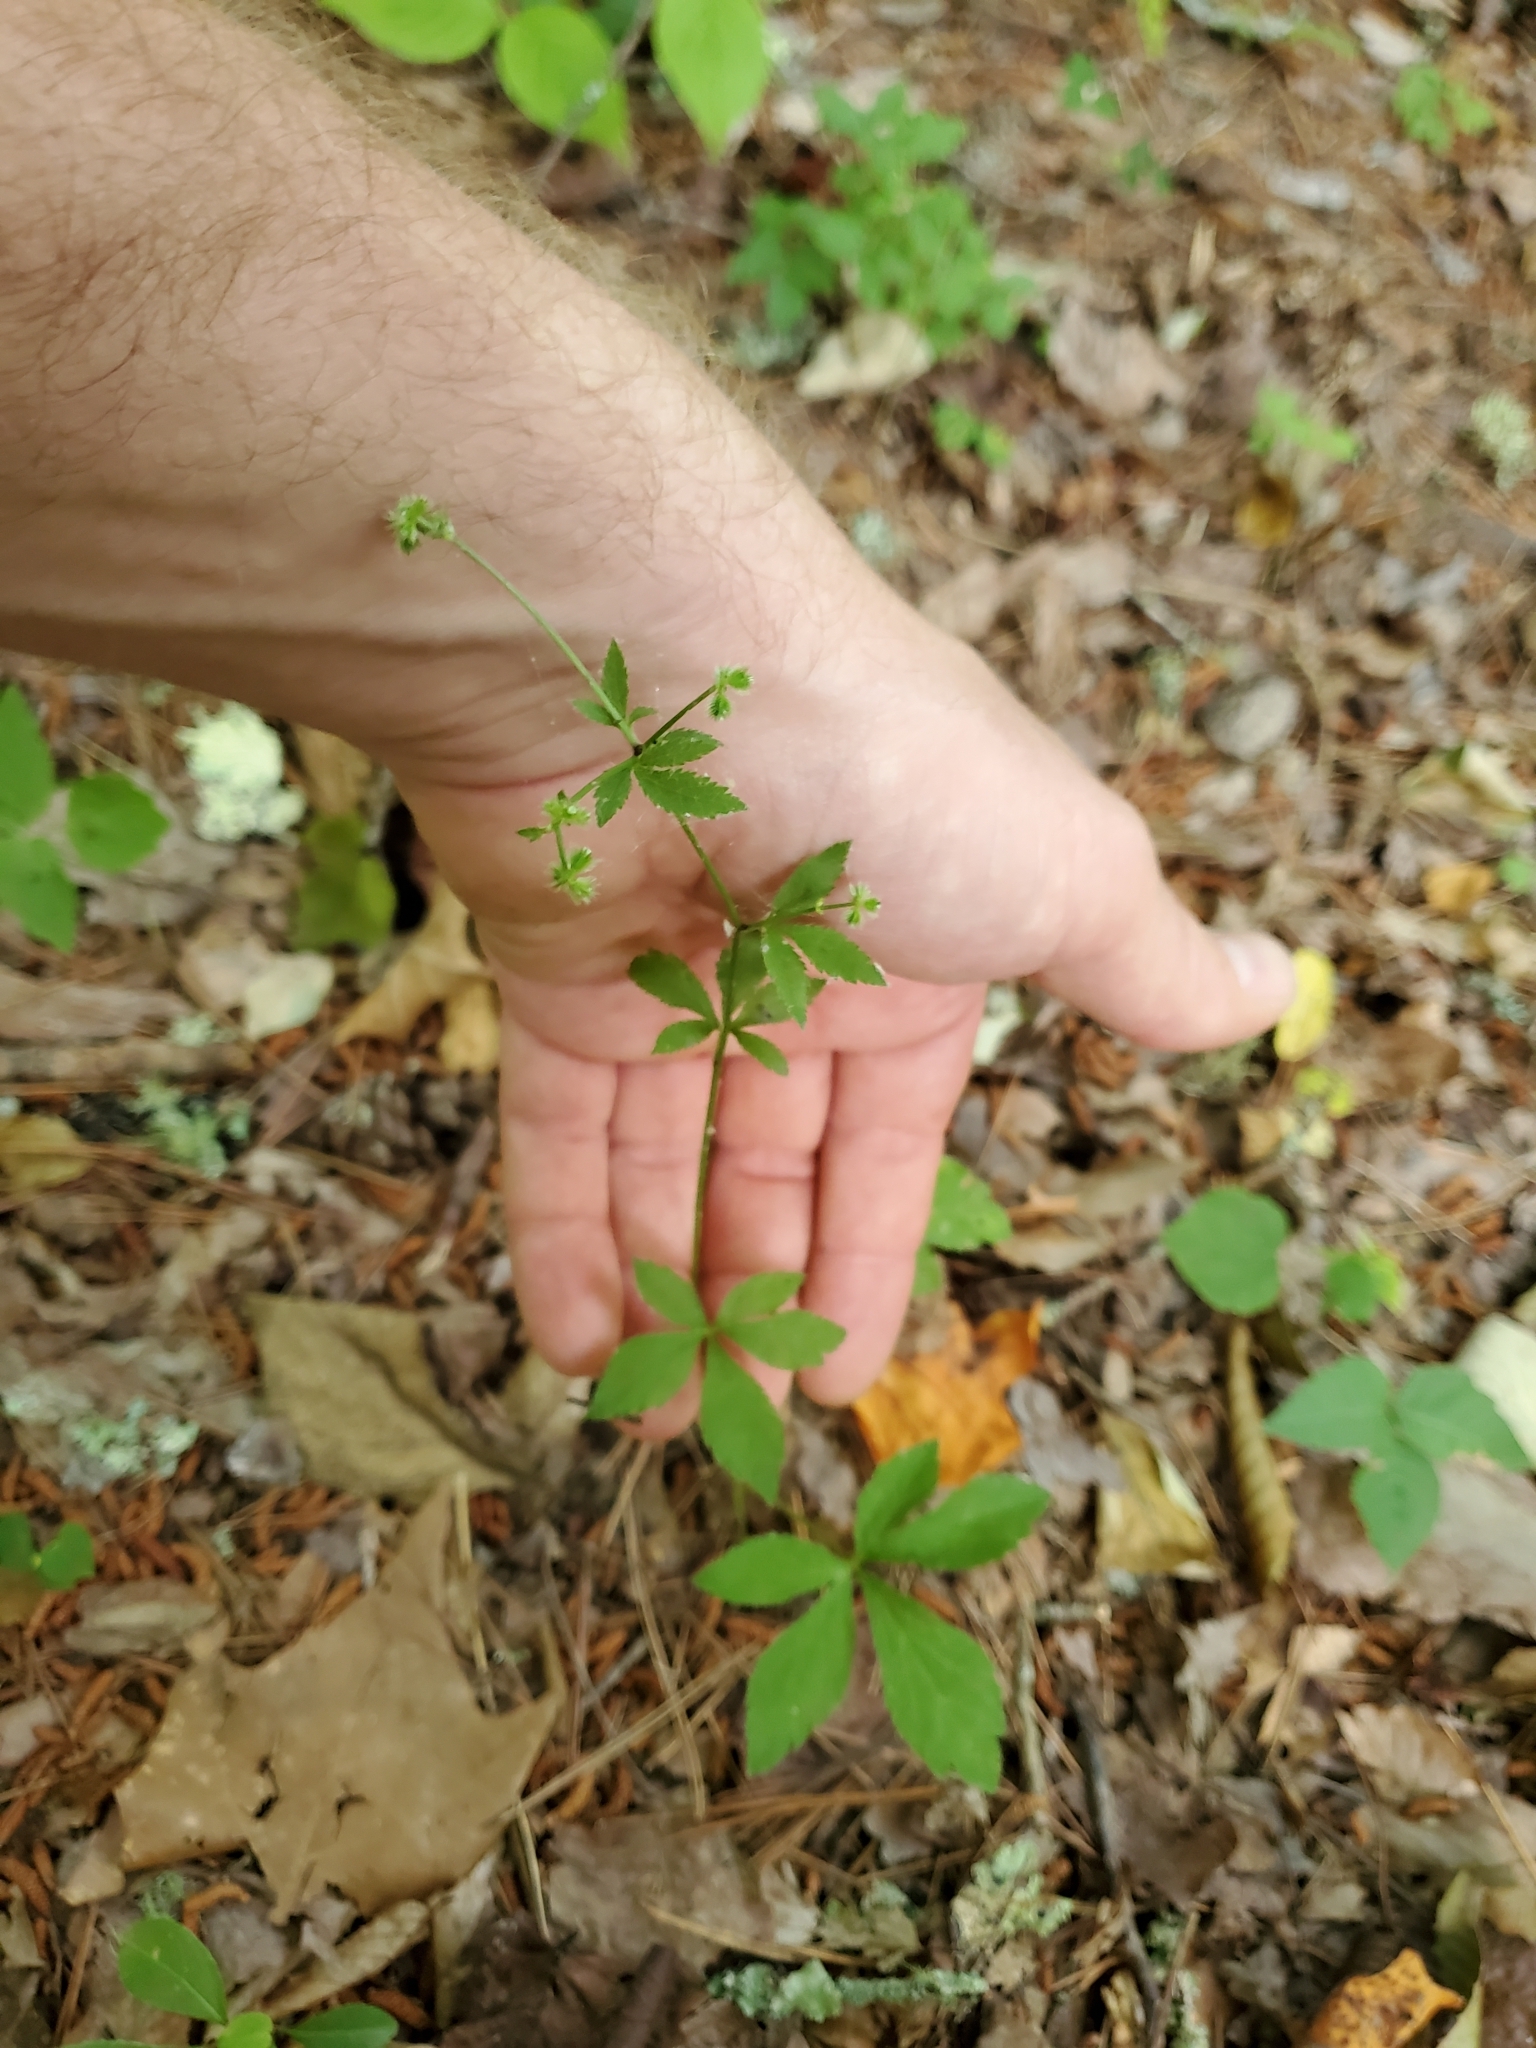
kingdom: Plantae
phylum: Tracheophyta
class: Magnoliopsida
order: Apiales
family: Apiaceae
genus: Sanicula
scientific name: Sanicula canadensis
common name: Canada sanicle
